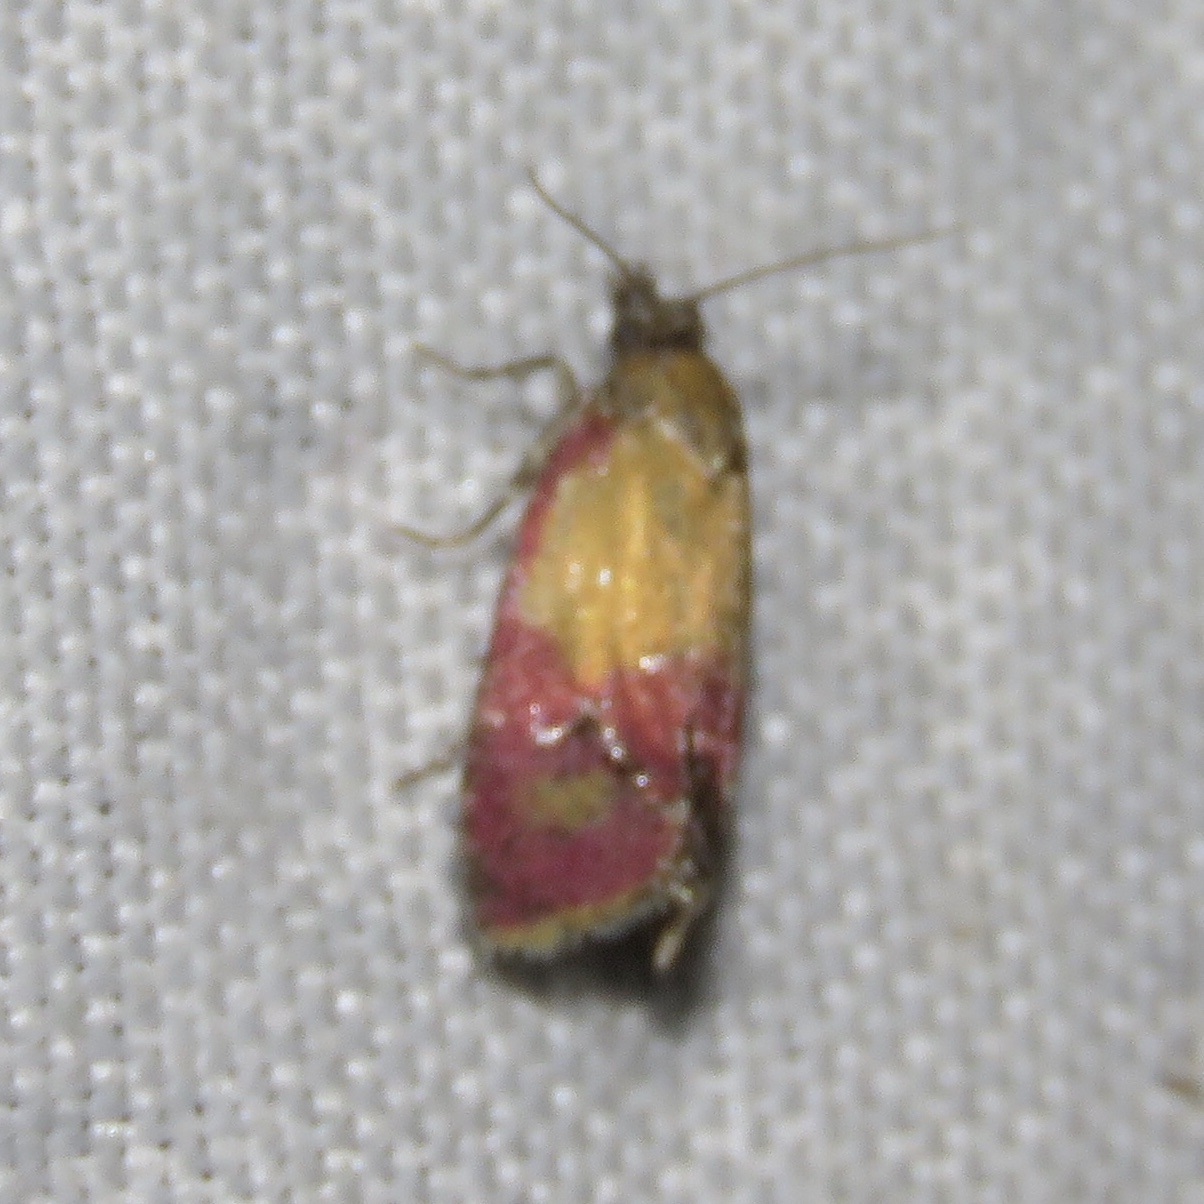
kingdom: Animalia
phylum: Arthropoda
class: Insecta
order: Lepidoptera
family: Tortricidae
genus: Conchylis
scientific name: Conchylis oenotherana
